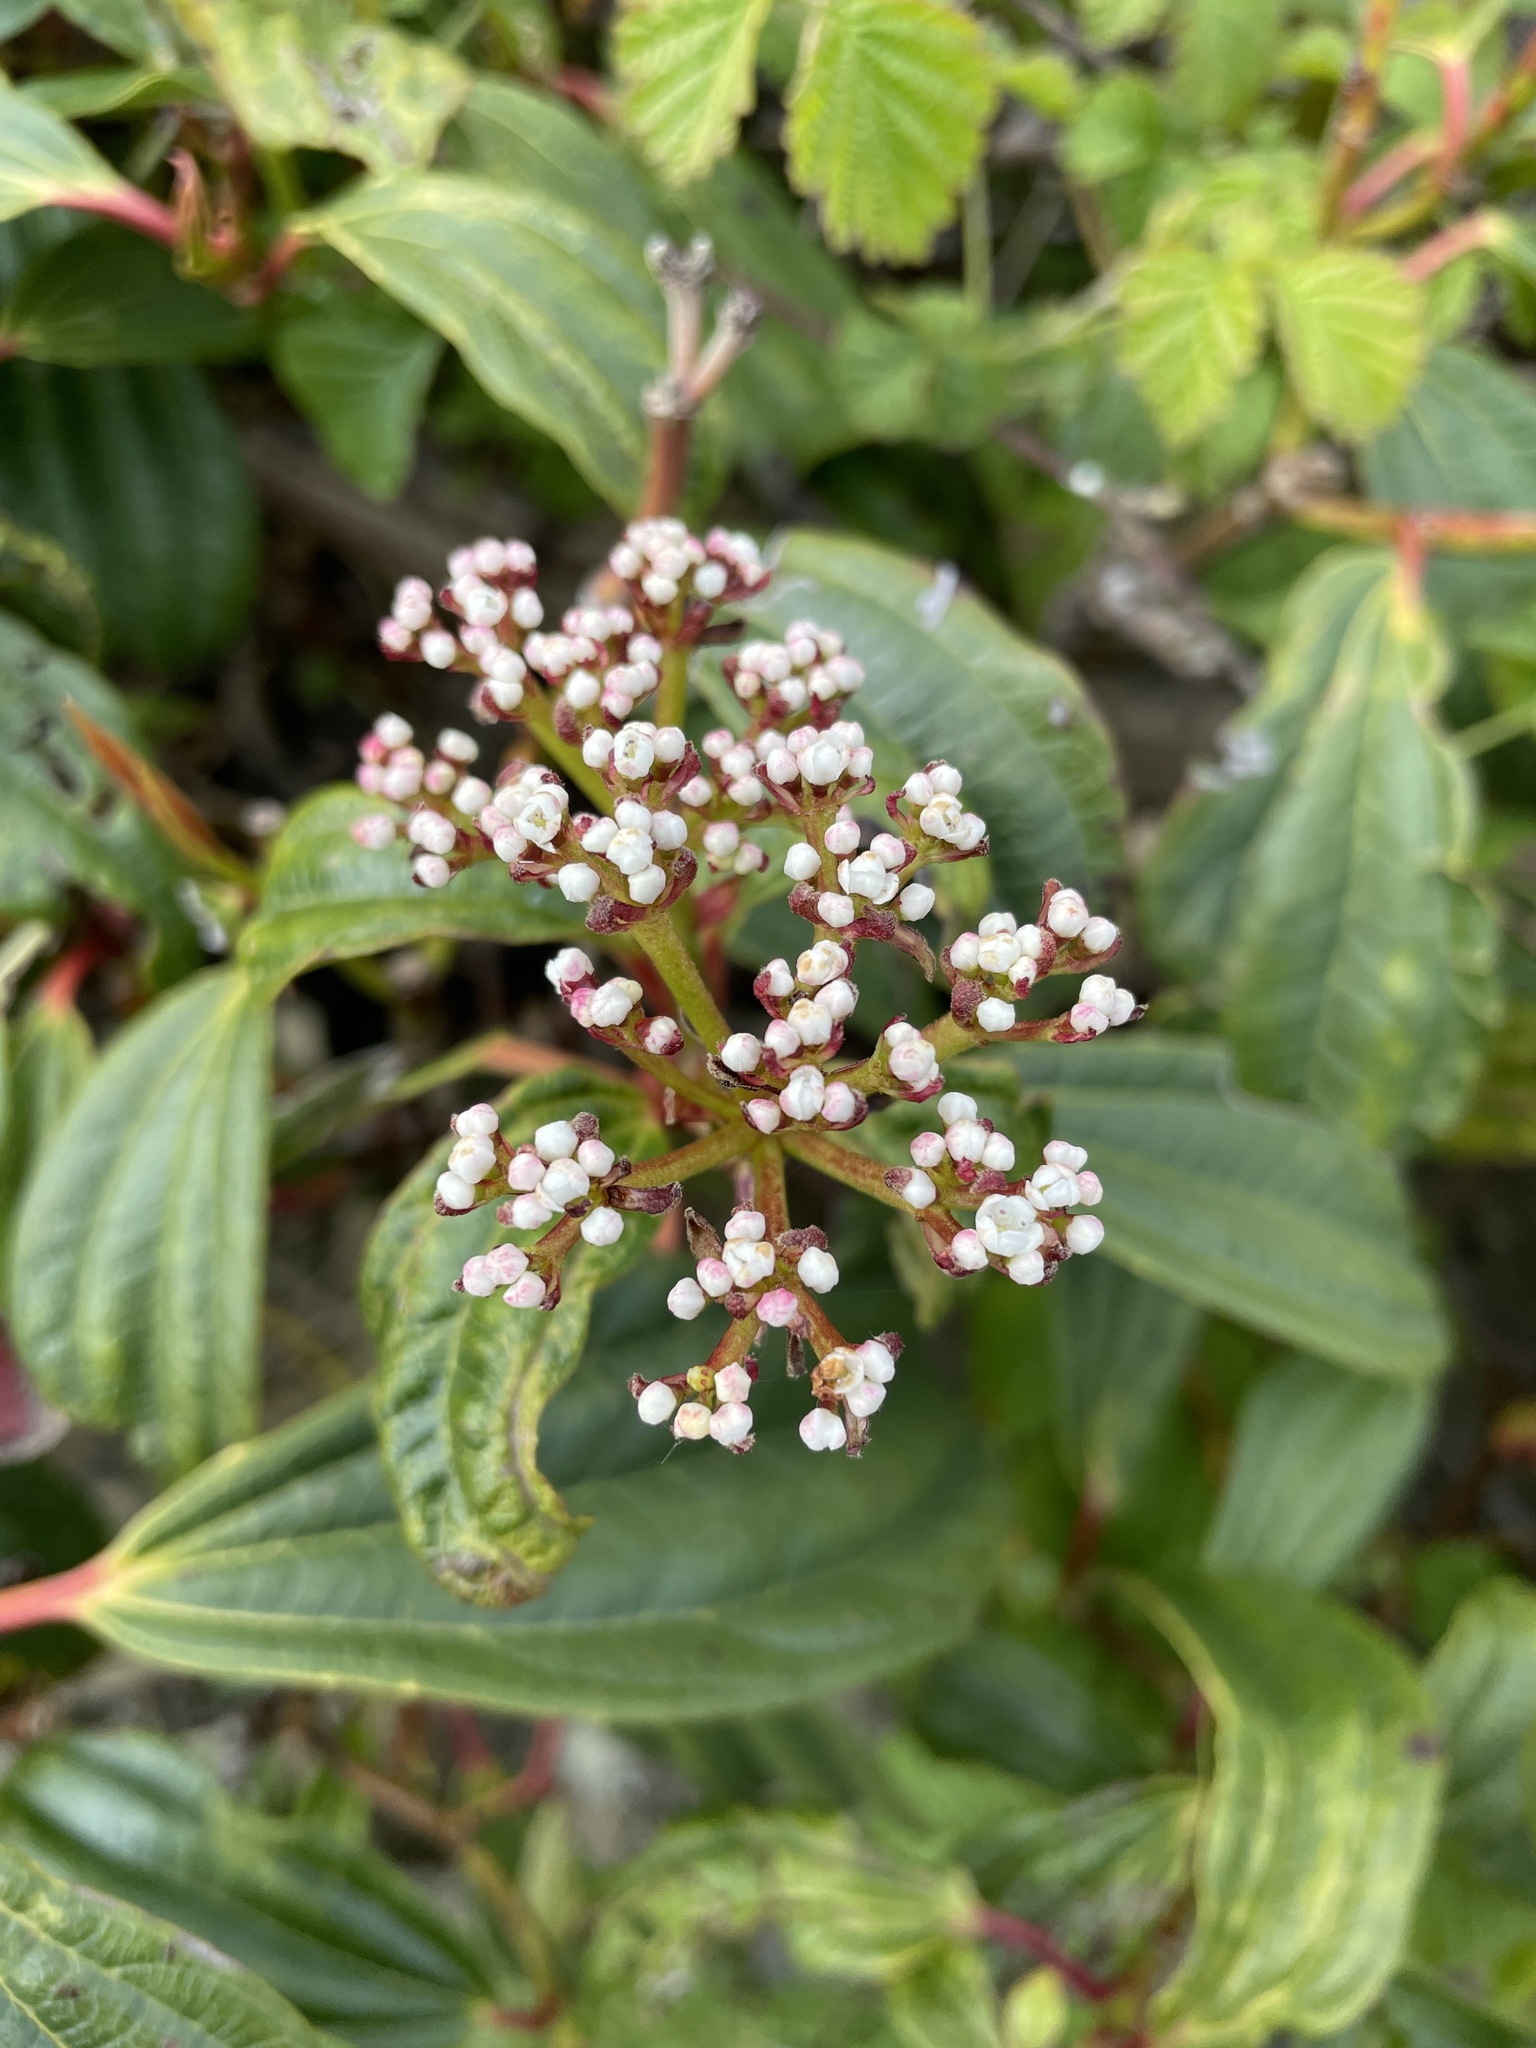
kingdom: Plantae
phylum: Tracheophyta
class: Magnoliopsida
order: Dipsacales
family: Viburnaceae
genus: Viburnum
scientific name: Viburnum davidi
